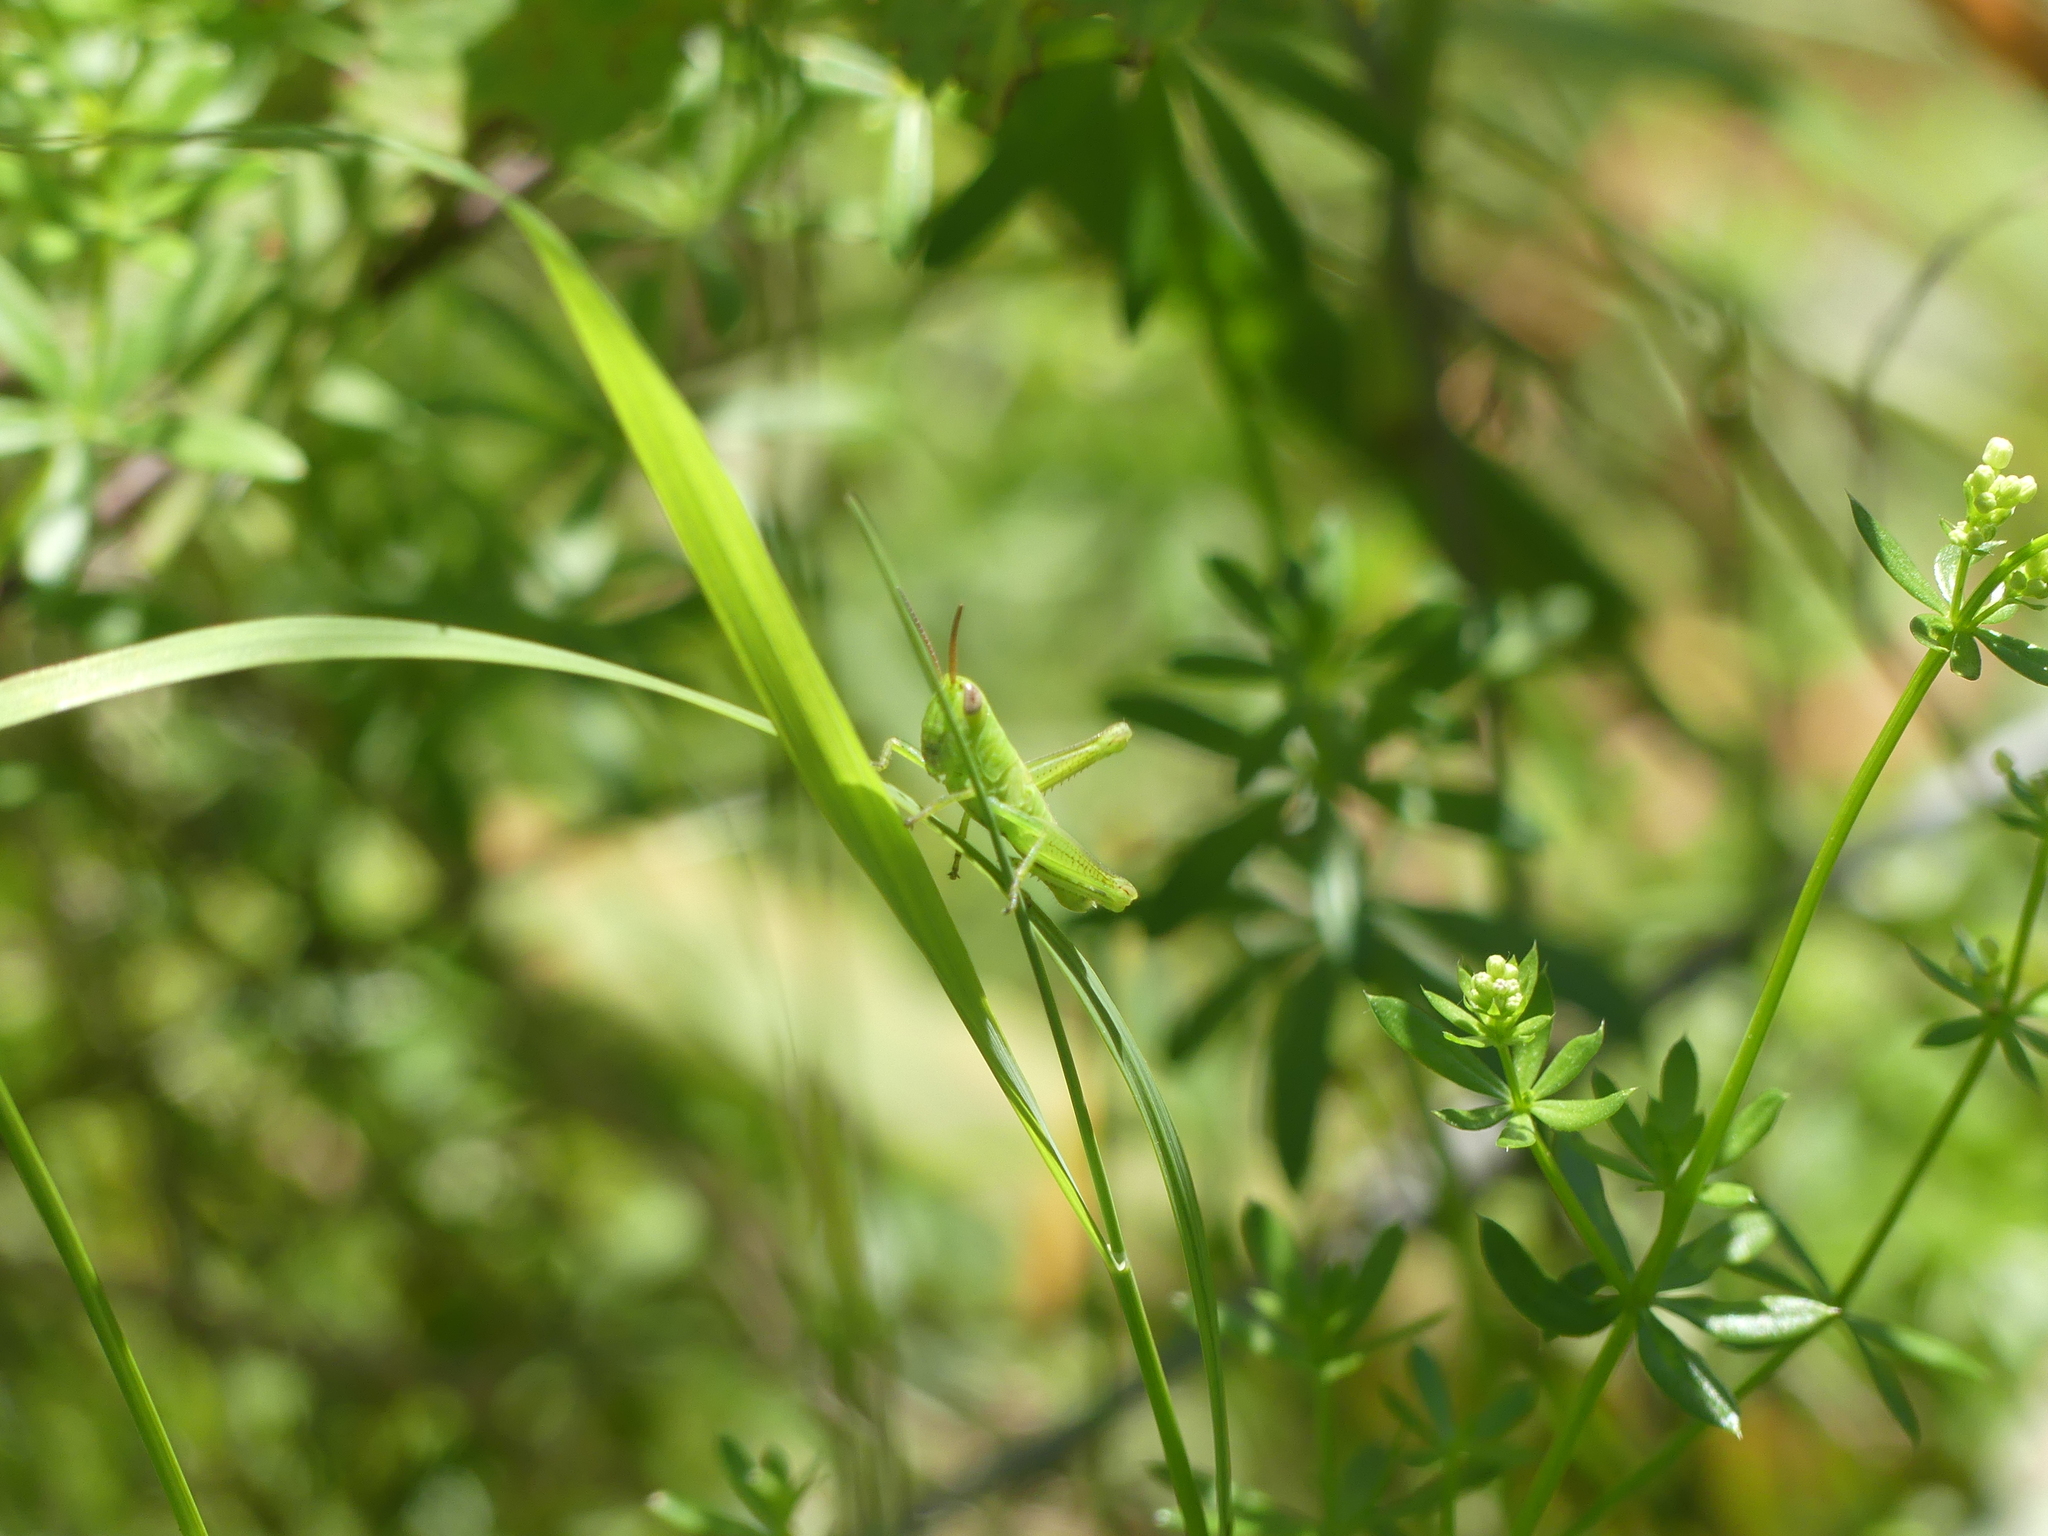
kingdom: Animalia
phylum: Arthropoda
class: Insecta
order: Orthoptera
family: Acrididae
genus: Mecostethus
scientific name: Mecostethus parapleurus
